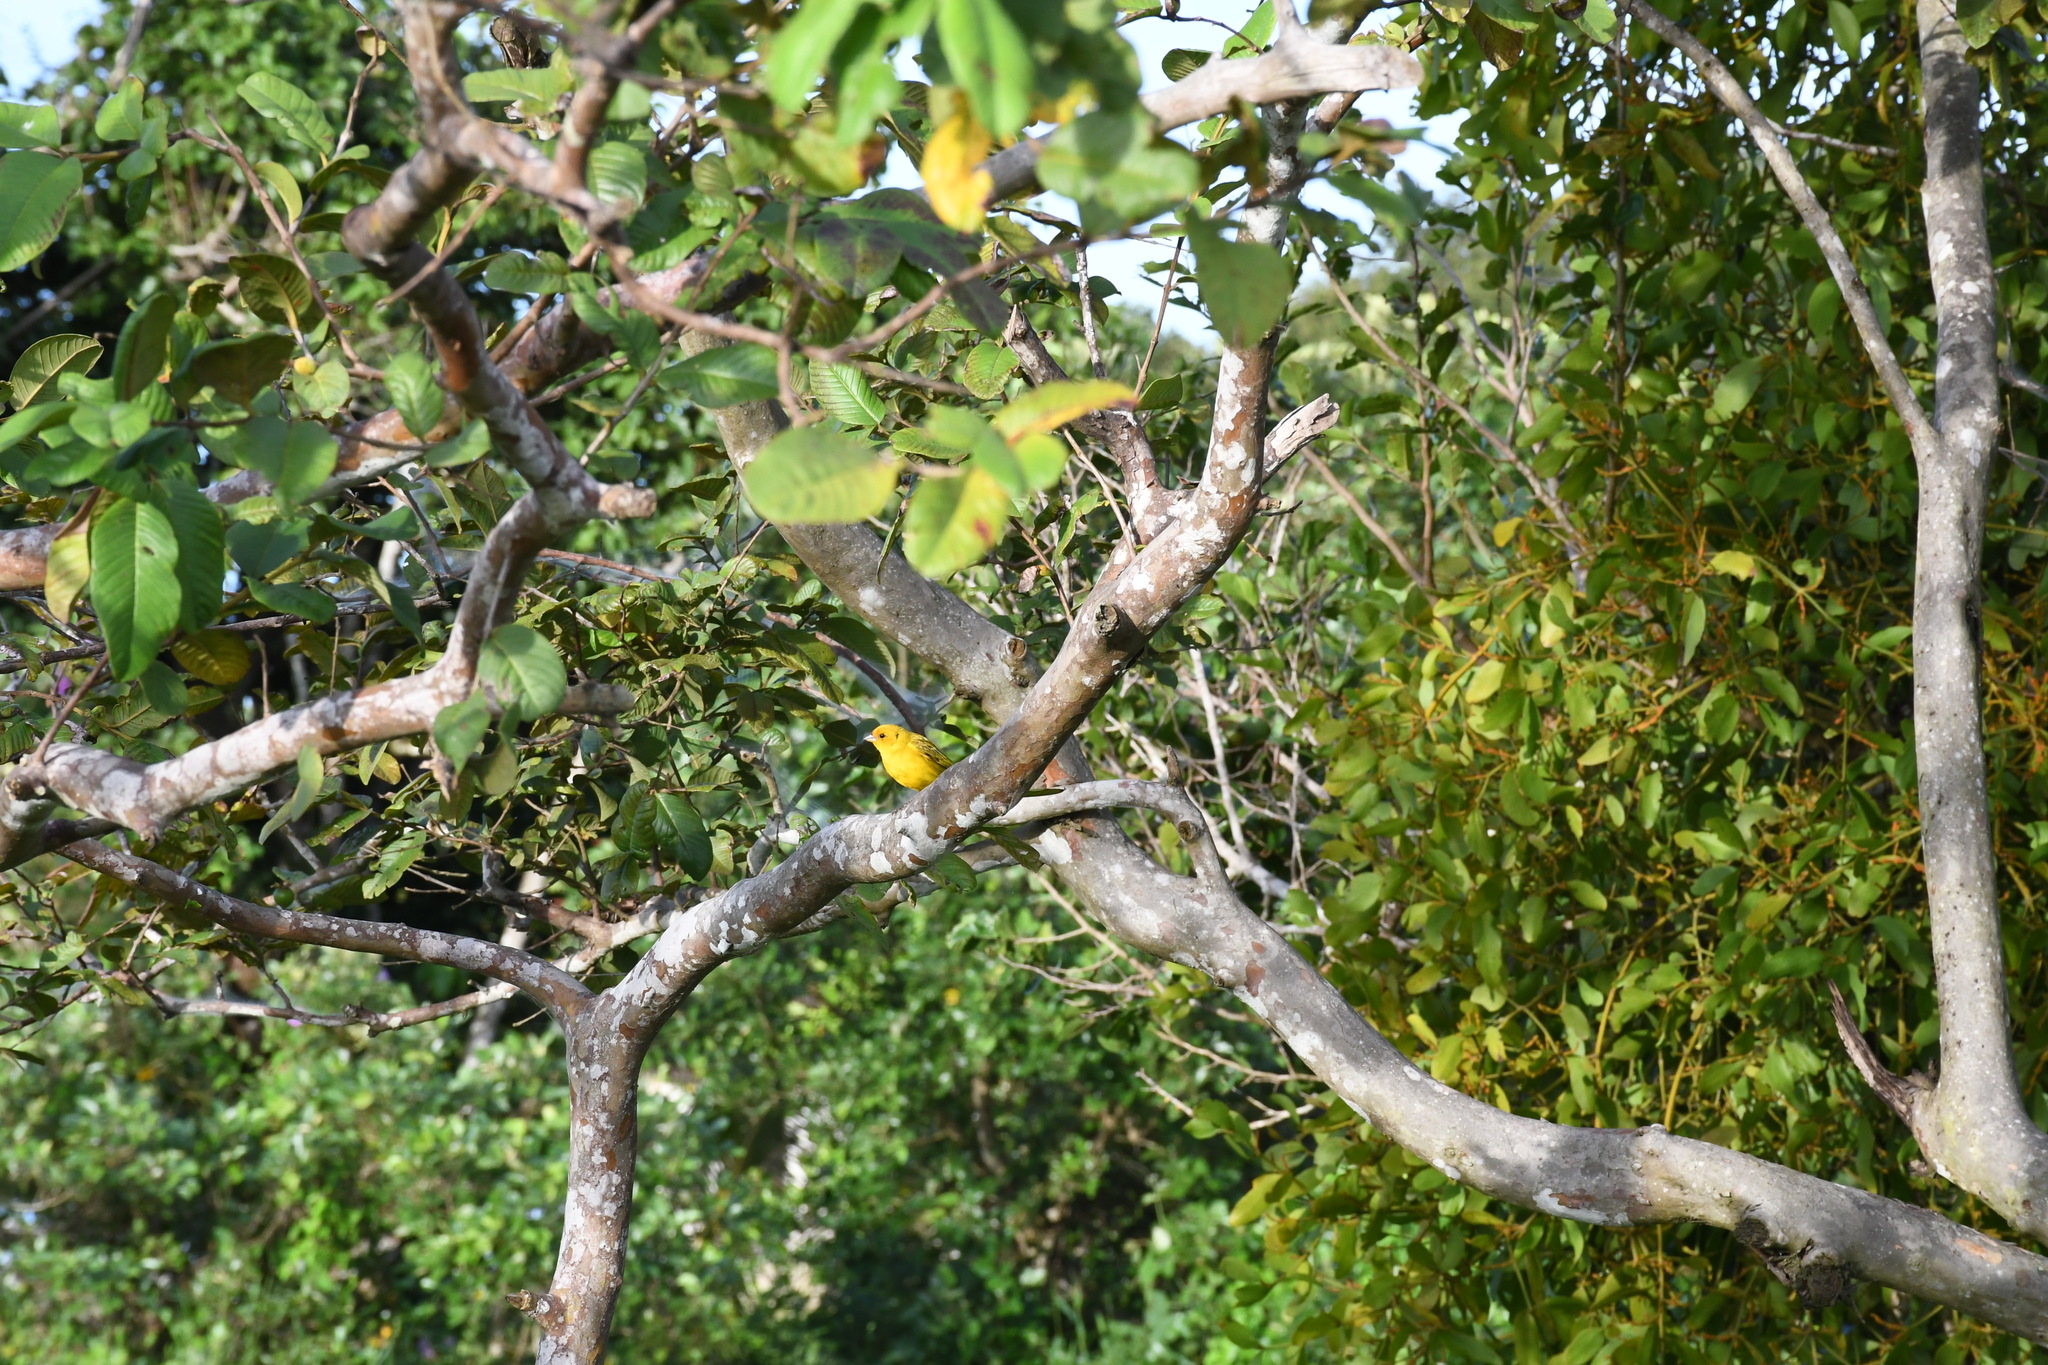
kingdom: Animalia
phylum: Chordata
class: Aves
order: Passeriformes
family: Thraupidae
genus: Sicalis
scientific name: Sicalis flaveola
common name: Saffron finch
